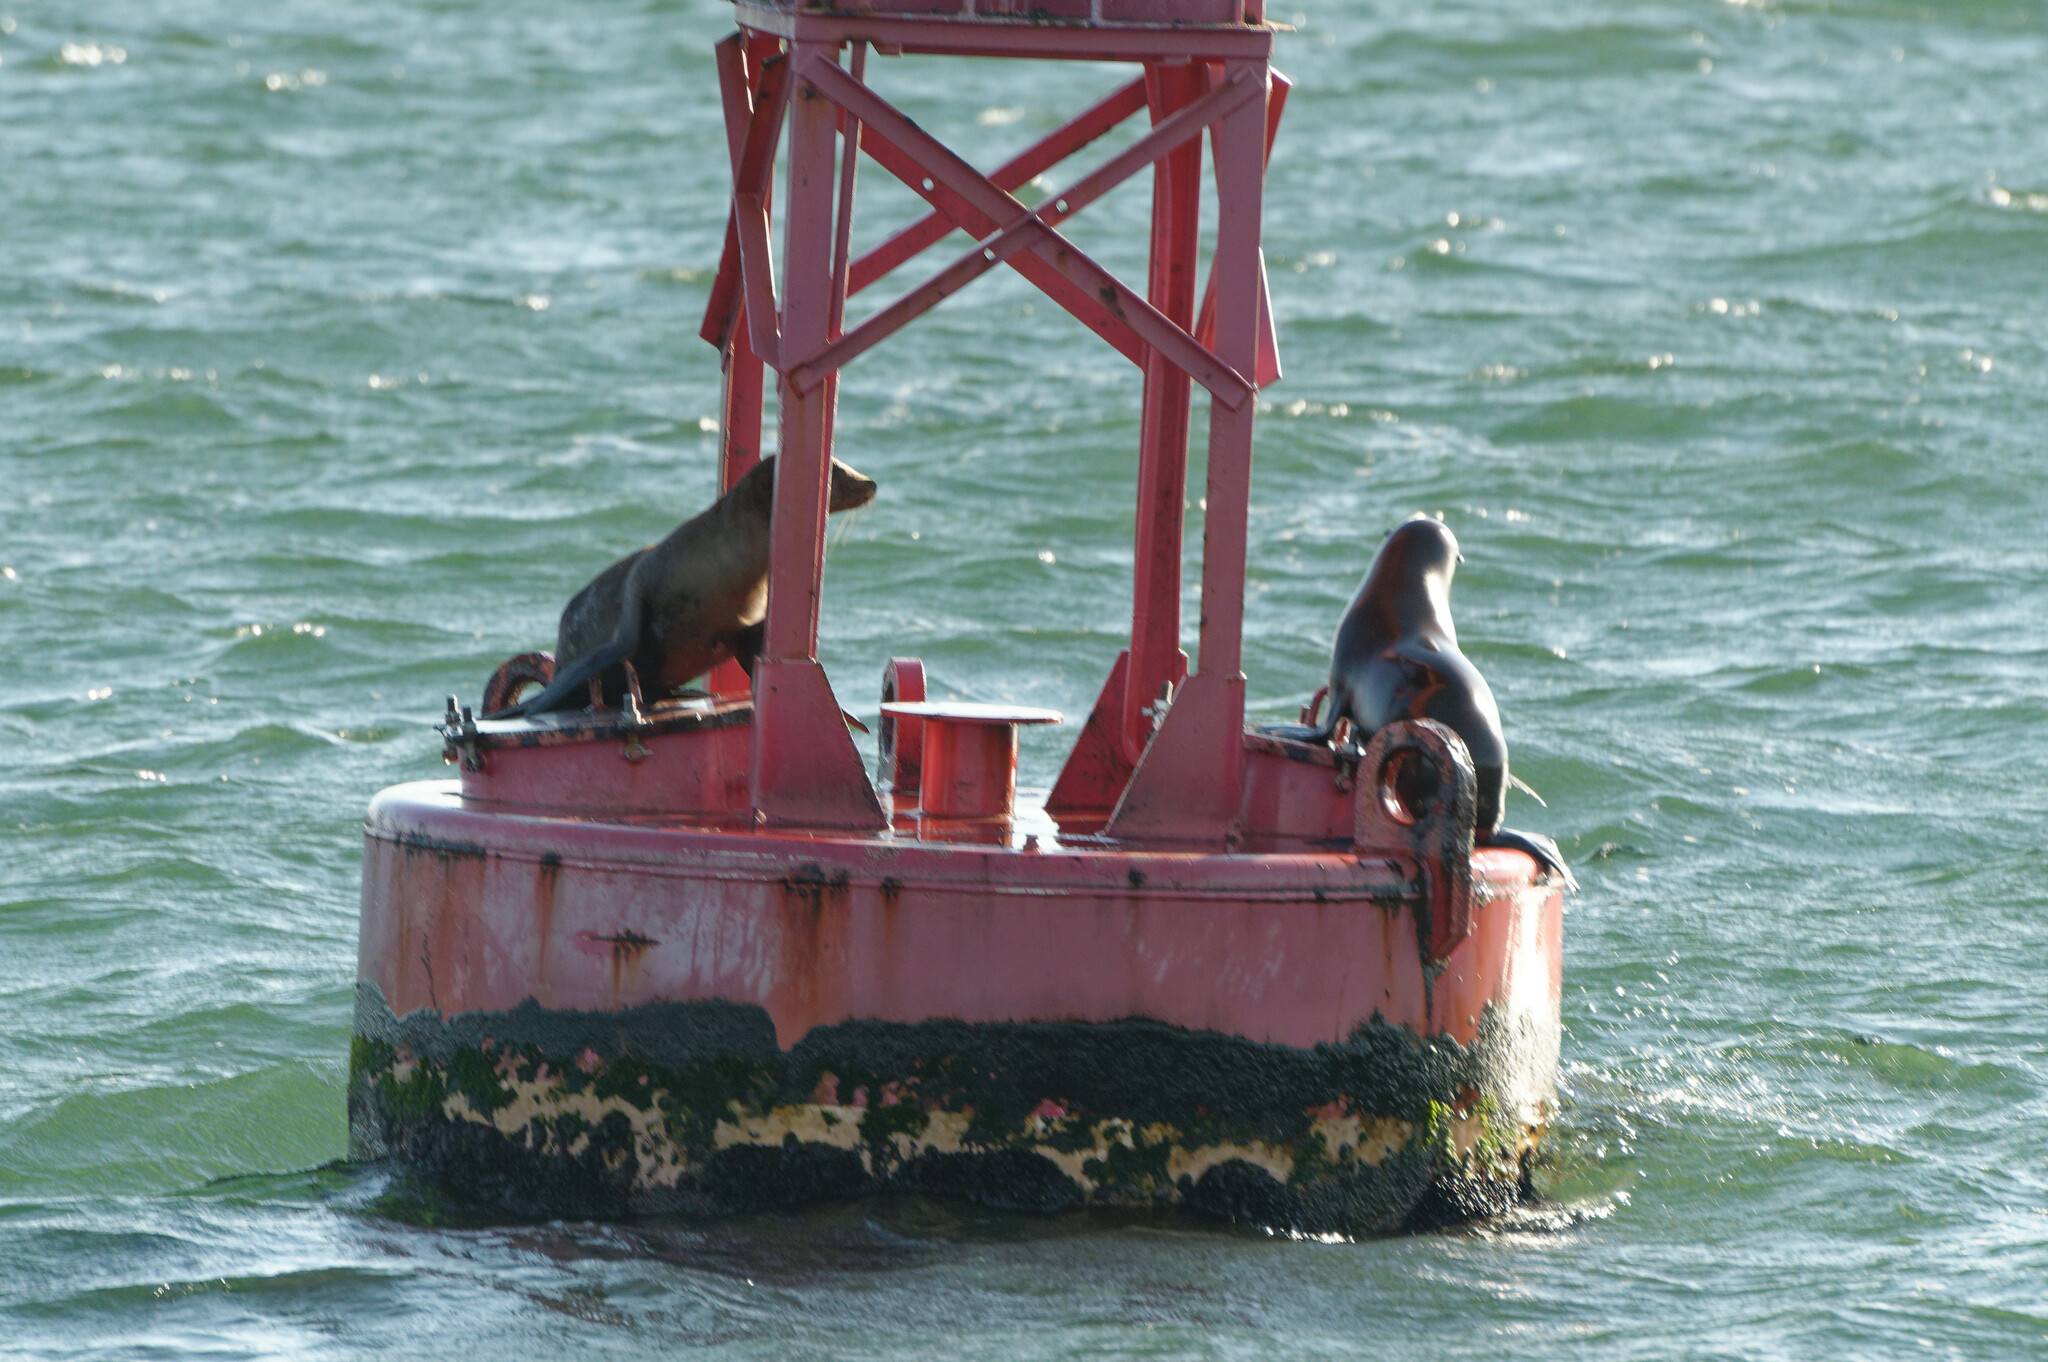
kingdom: Animalia
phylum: Chordata
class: Mammalia
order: Carnivora
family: Otariidae
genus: Zalophus
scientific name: Zalophus californianus
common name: California sea lion
